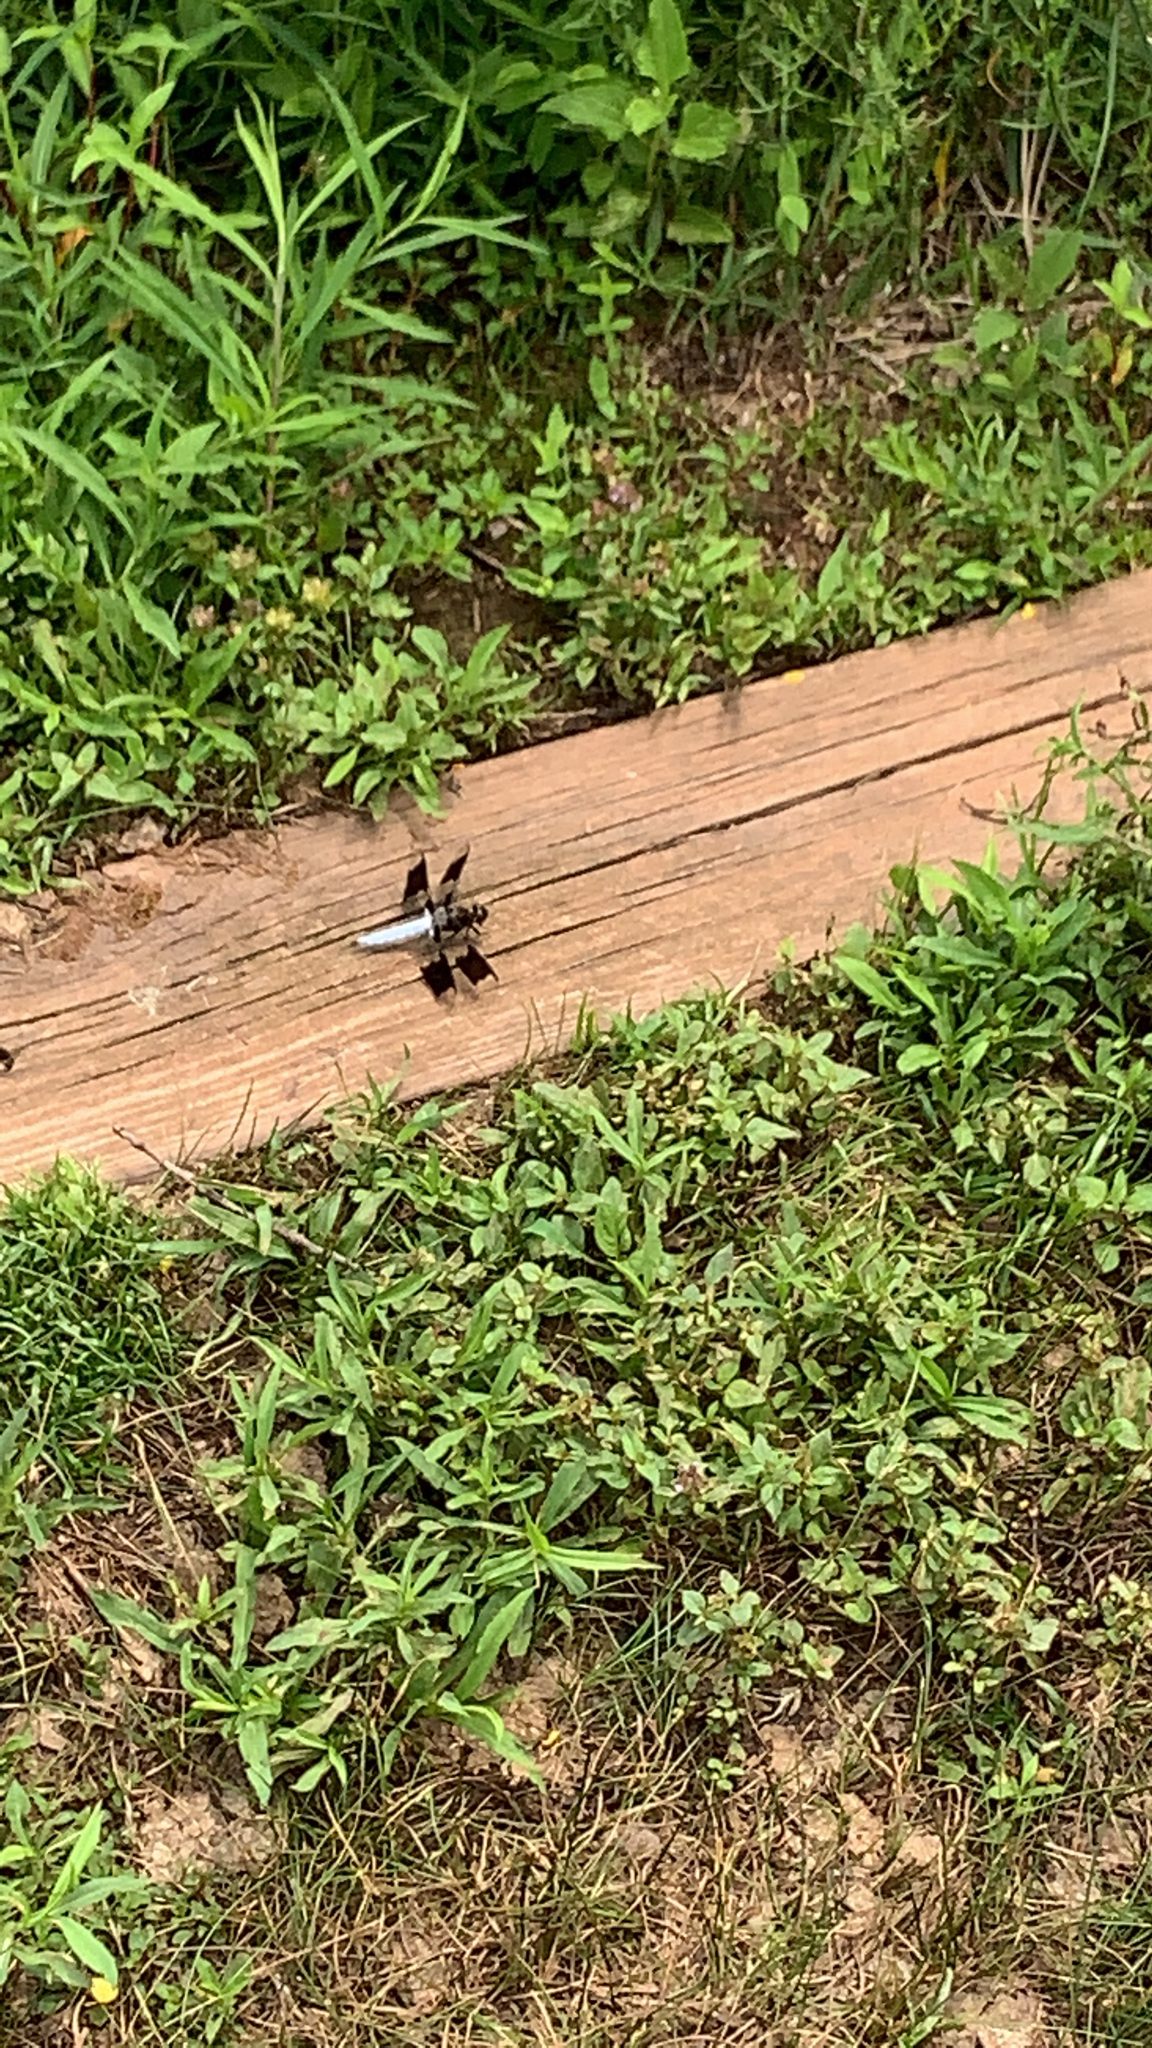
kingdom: Animalia
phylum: Arthropoda
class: Insecta
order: Odonata
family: Libellulidae
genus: Plathemis
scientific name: Plathemis lydia
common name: Common whitetail
